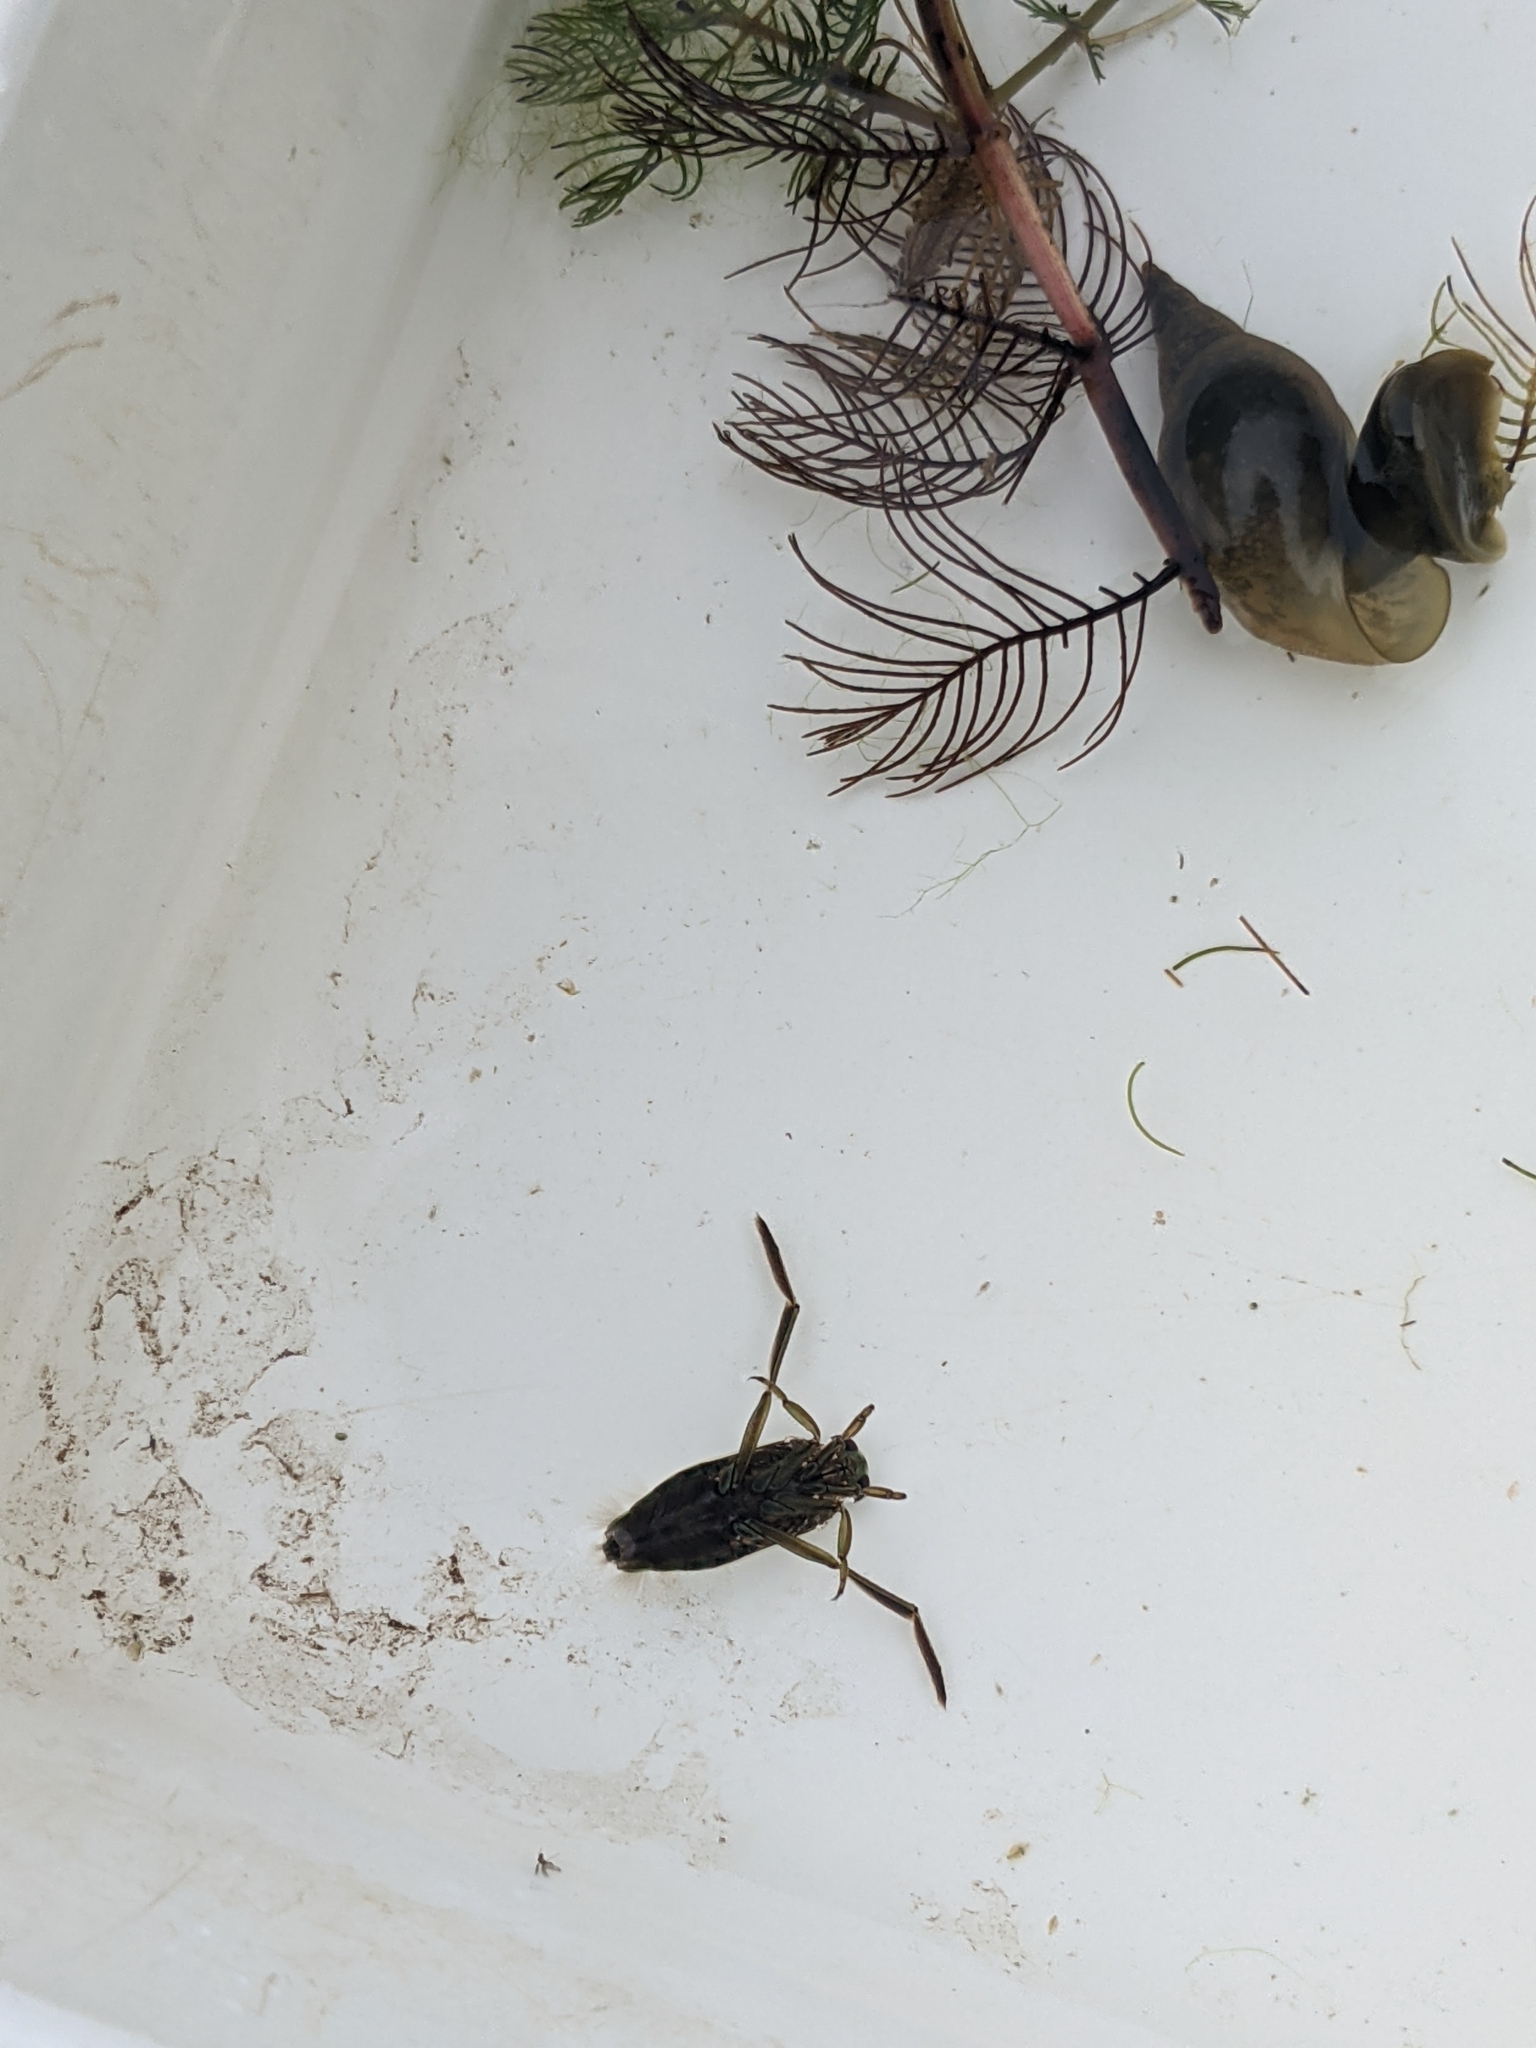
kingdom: Animalia
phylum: Arthropoda
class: Insecta
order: Hemiptera
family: Notonectidae
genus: Notonecta
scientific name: Notonecta
